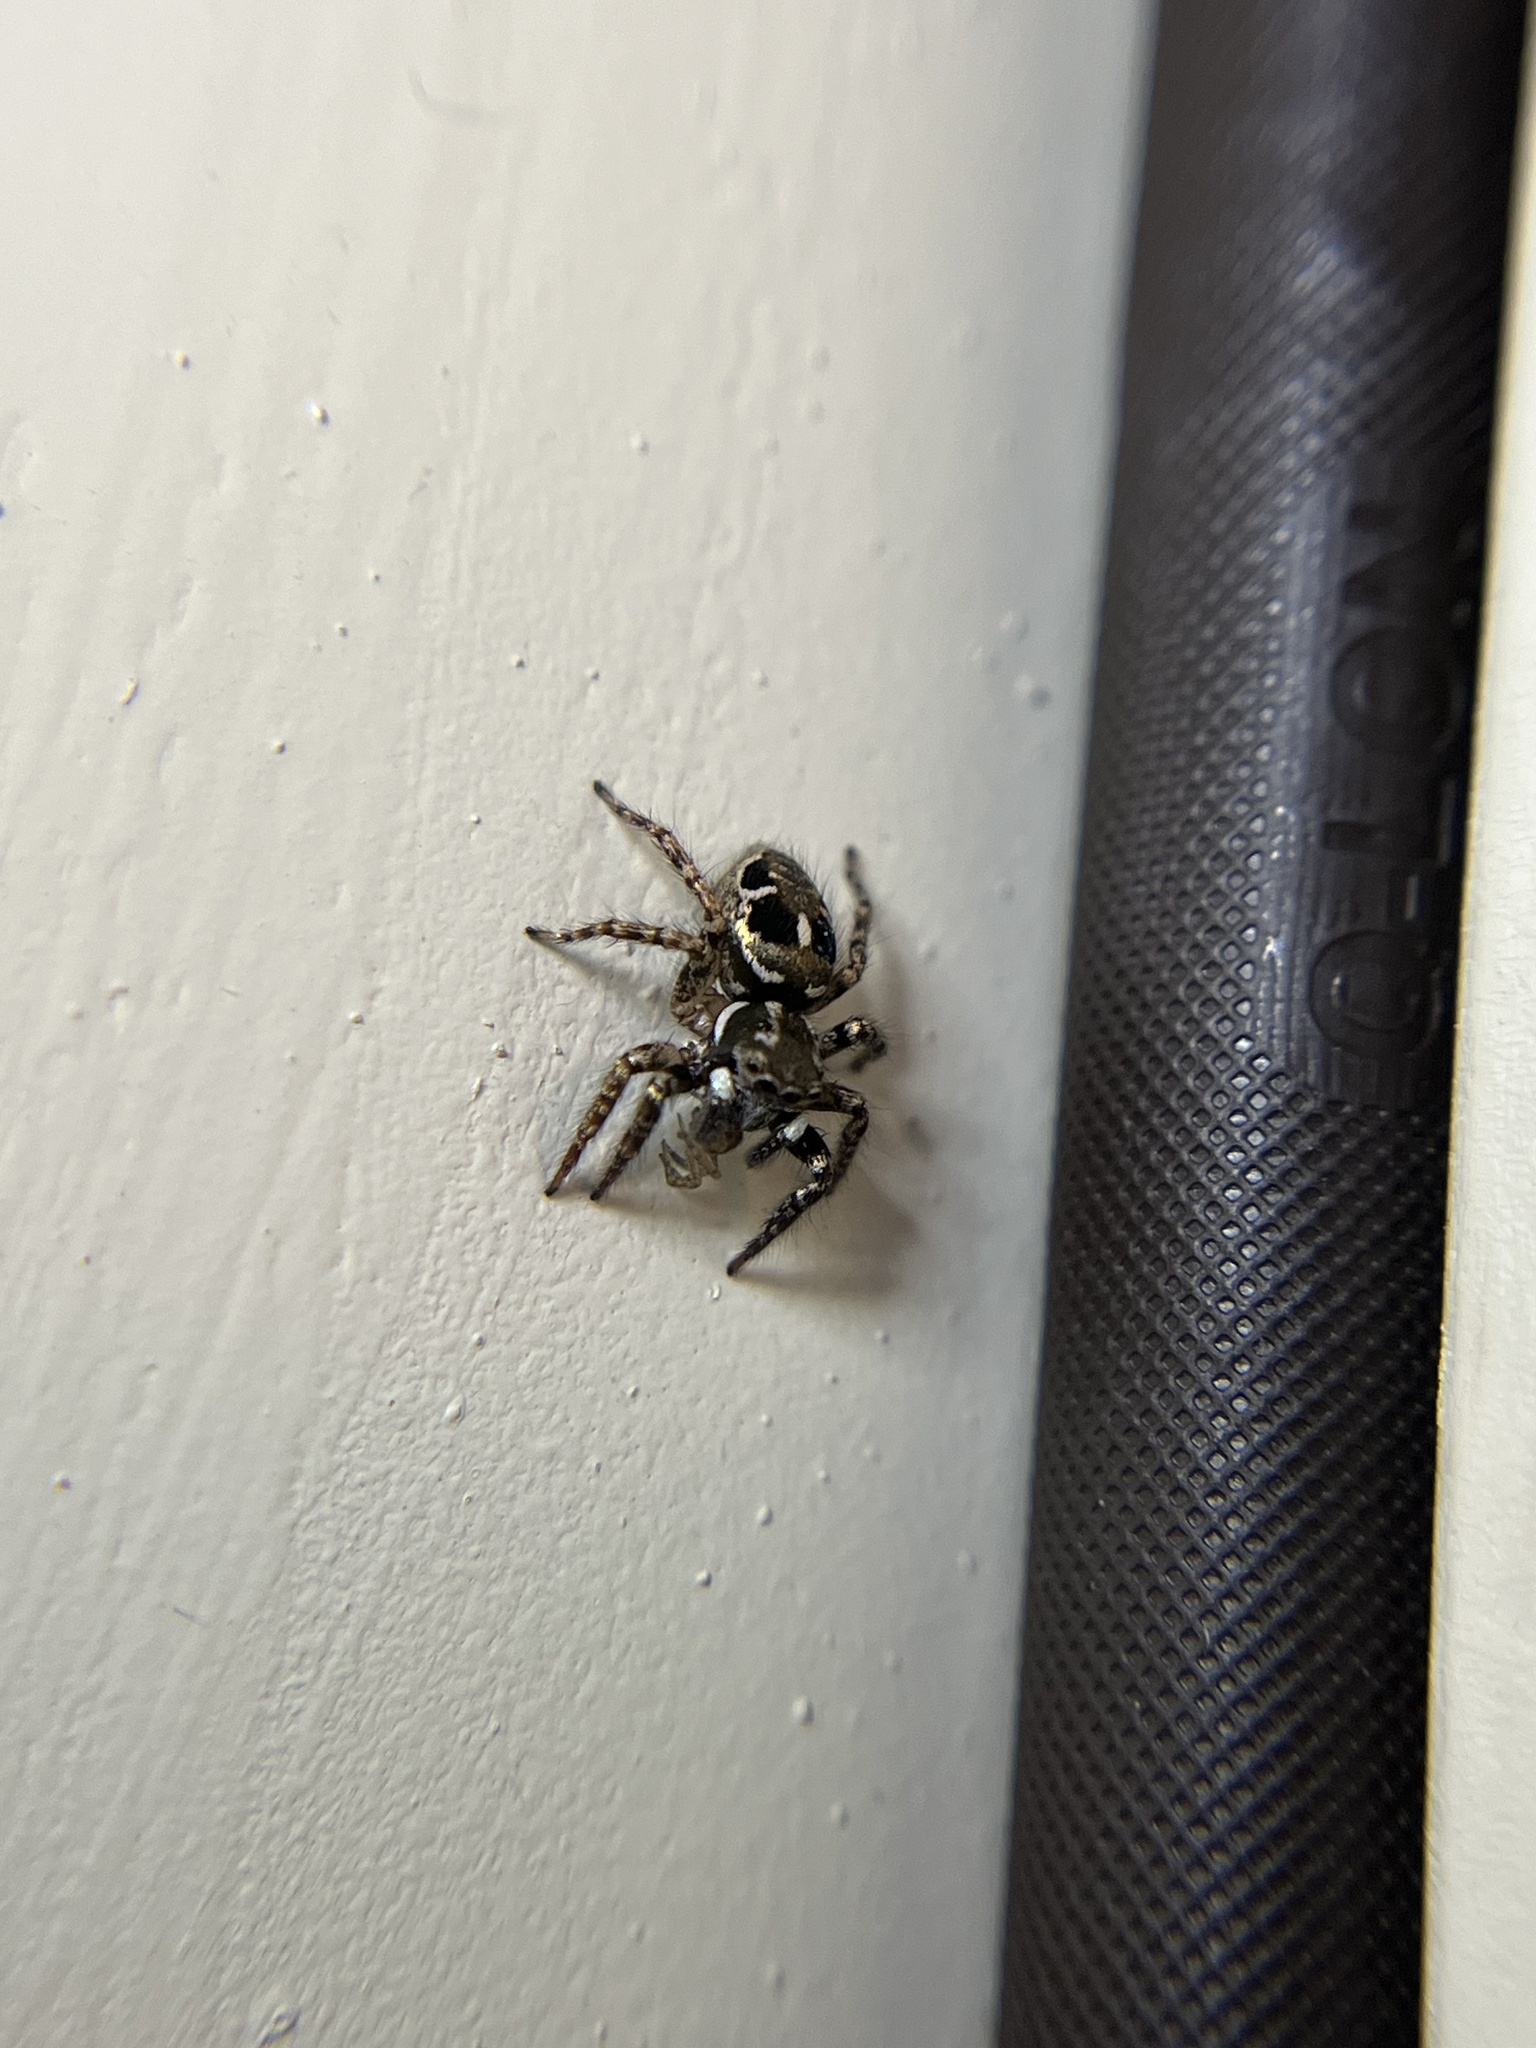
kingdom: Animalia
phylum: Arthropoda
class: Arachnida
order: Araneae
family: Salticidae
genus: Anasaitis
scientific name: Anasaitis canosa
